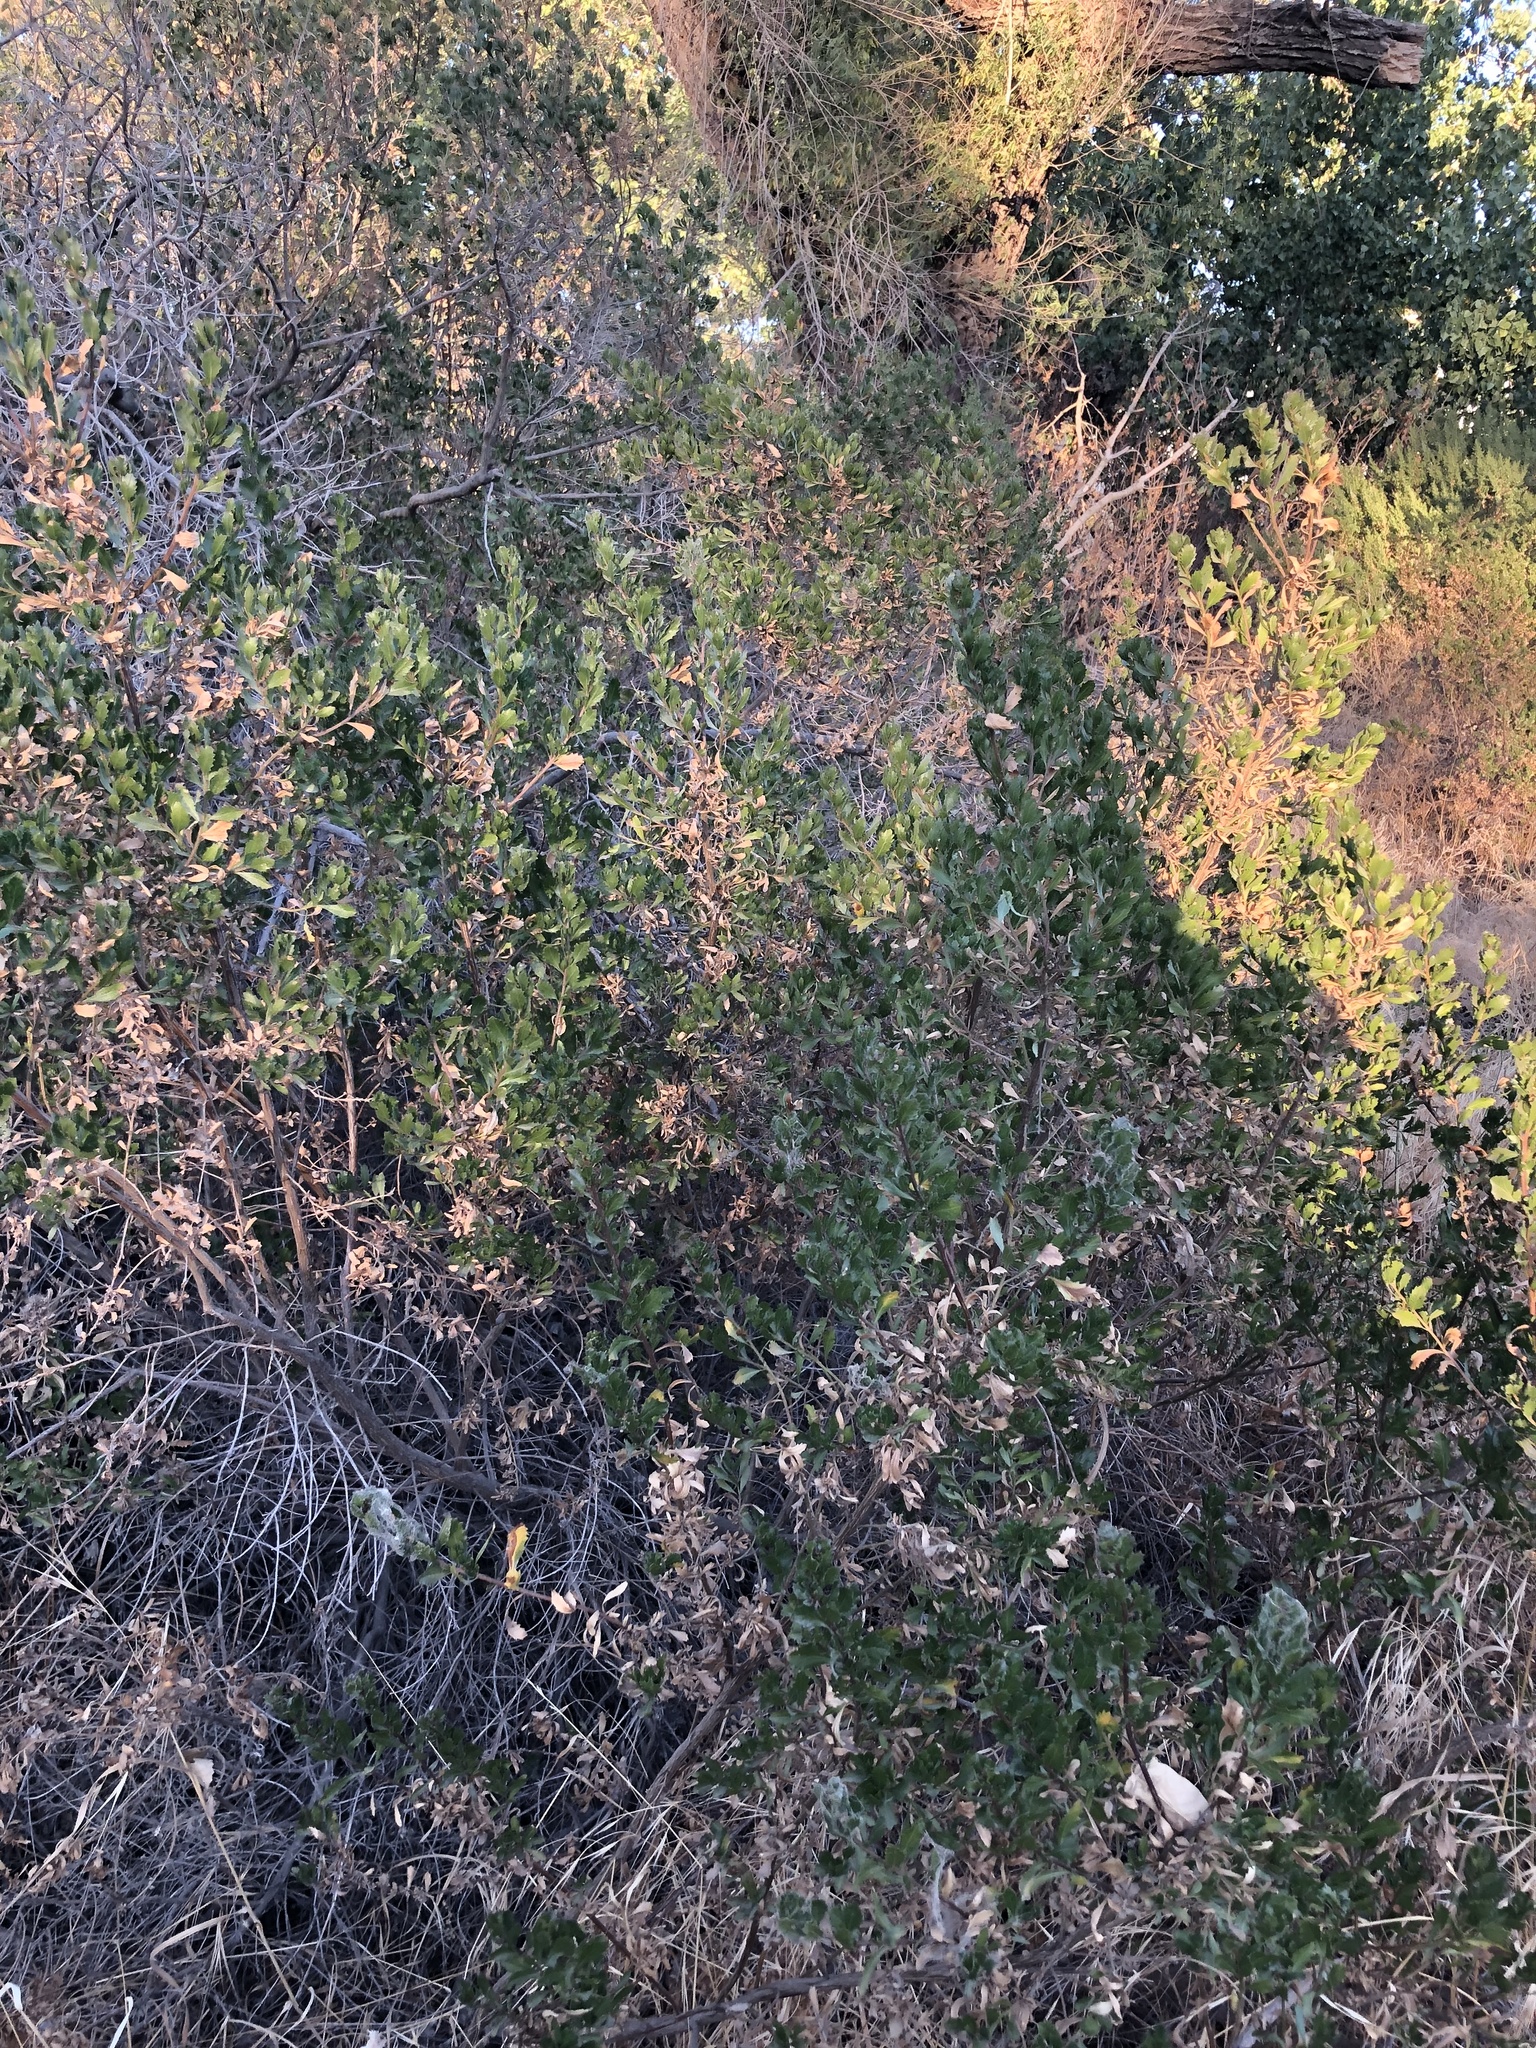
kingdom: Plantae
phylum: Tracheophyta
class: Magnoliopsida
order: Asterales
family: Asteraceae
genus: Baccharis
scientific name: Baccharis pilularis
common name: Coyotebrush
